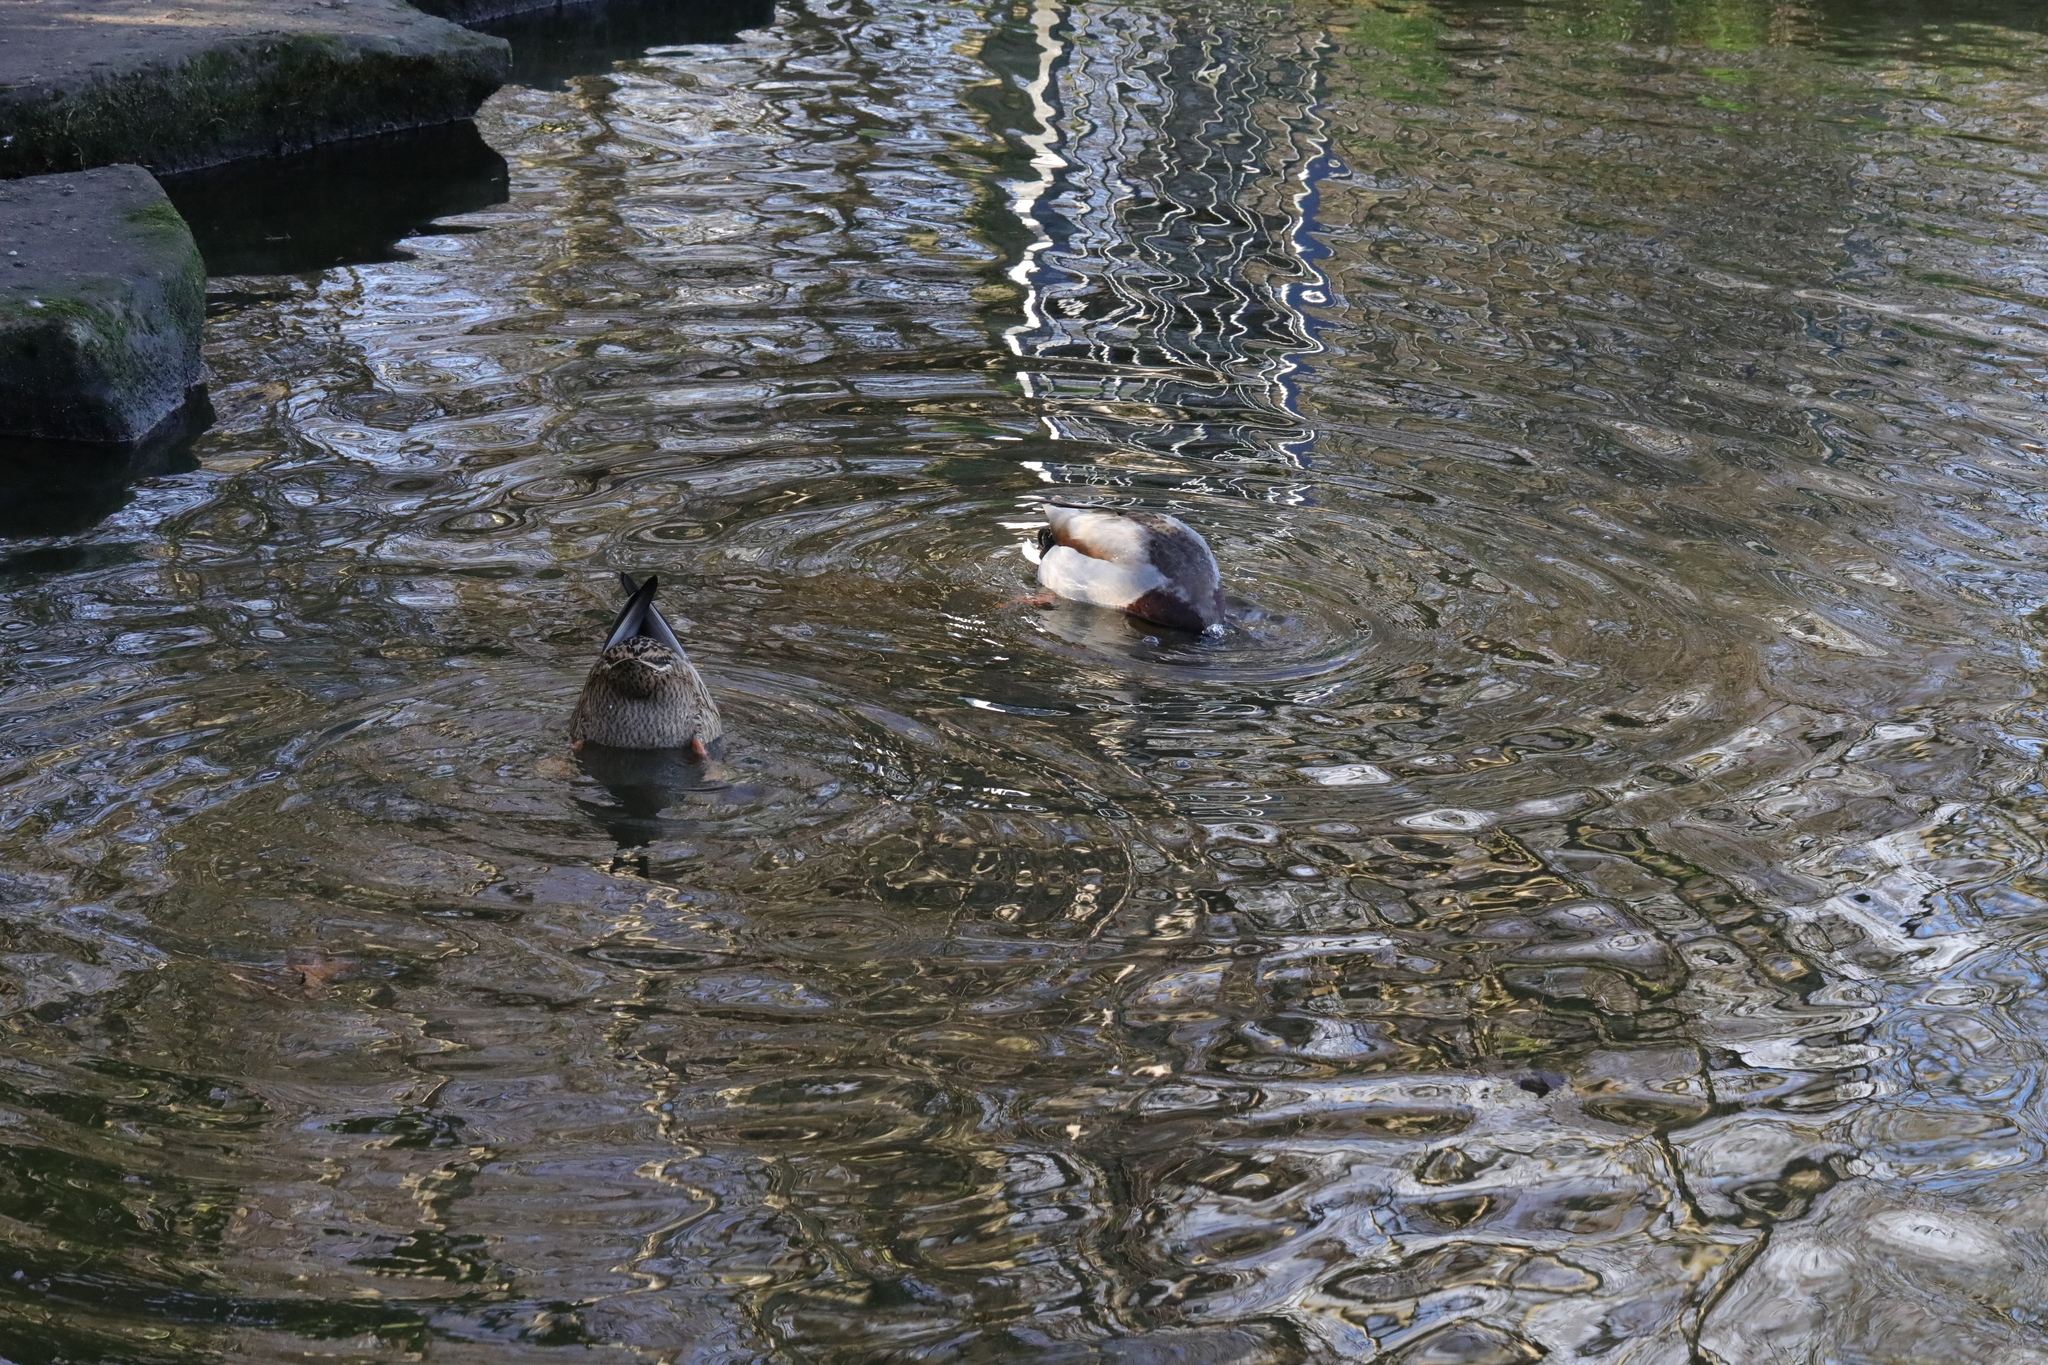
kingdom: Animalia
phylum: Chordata
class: Aves
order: Anseriformes
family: Anatidae
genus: Anas
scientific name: Anas platyrhynchos
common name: Mallard
